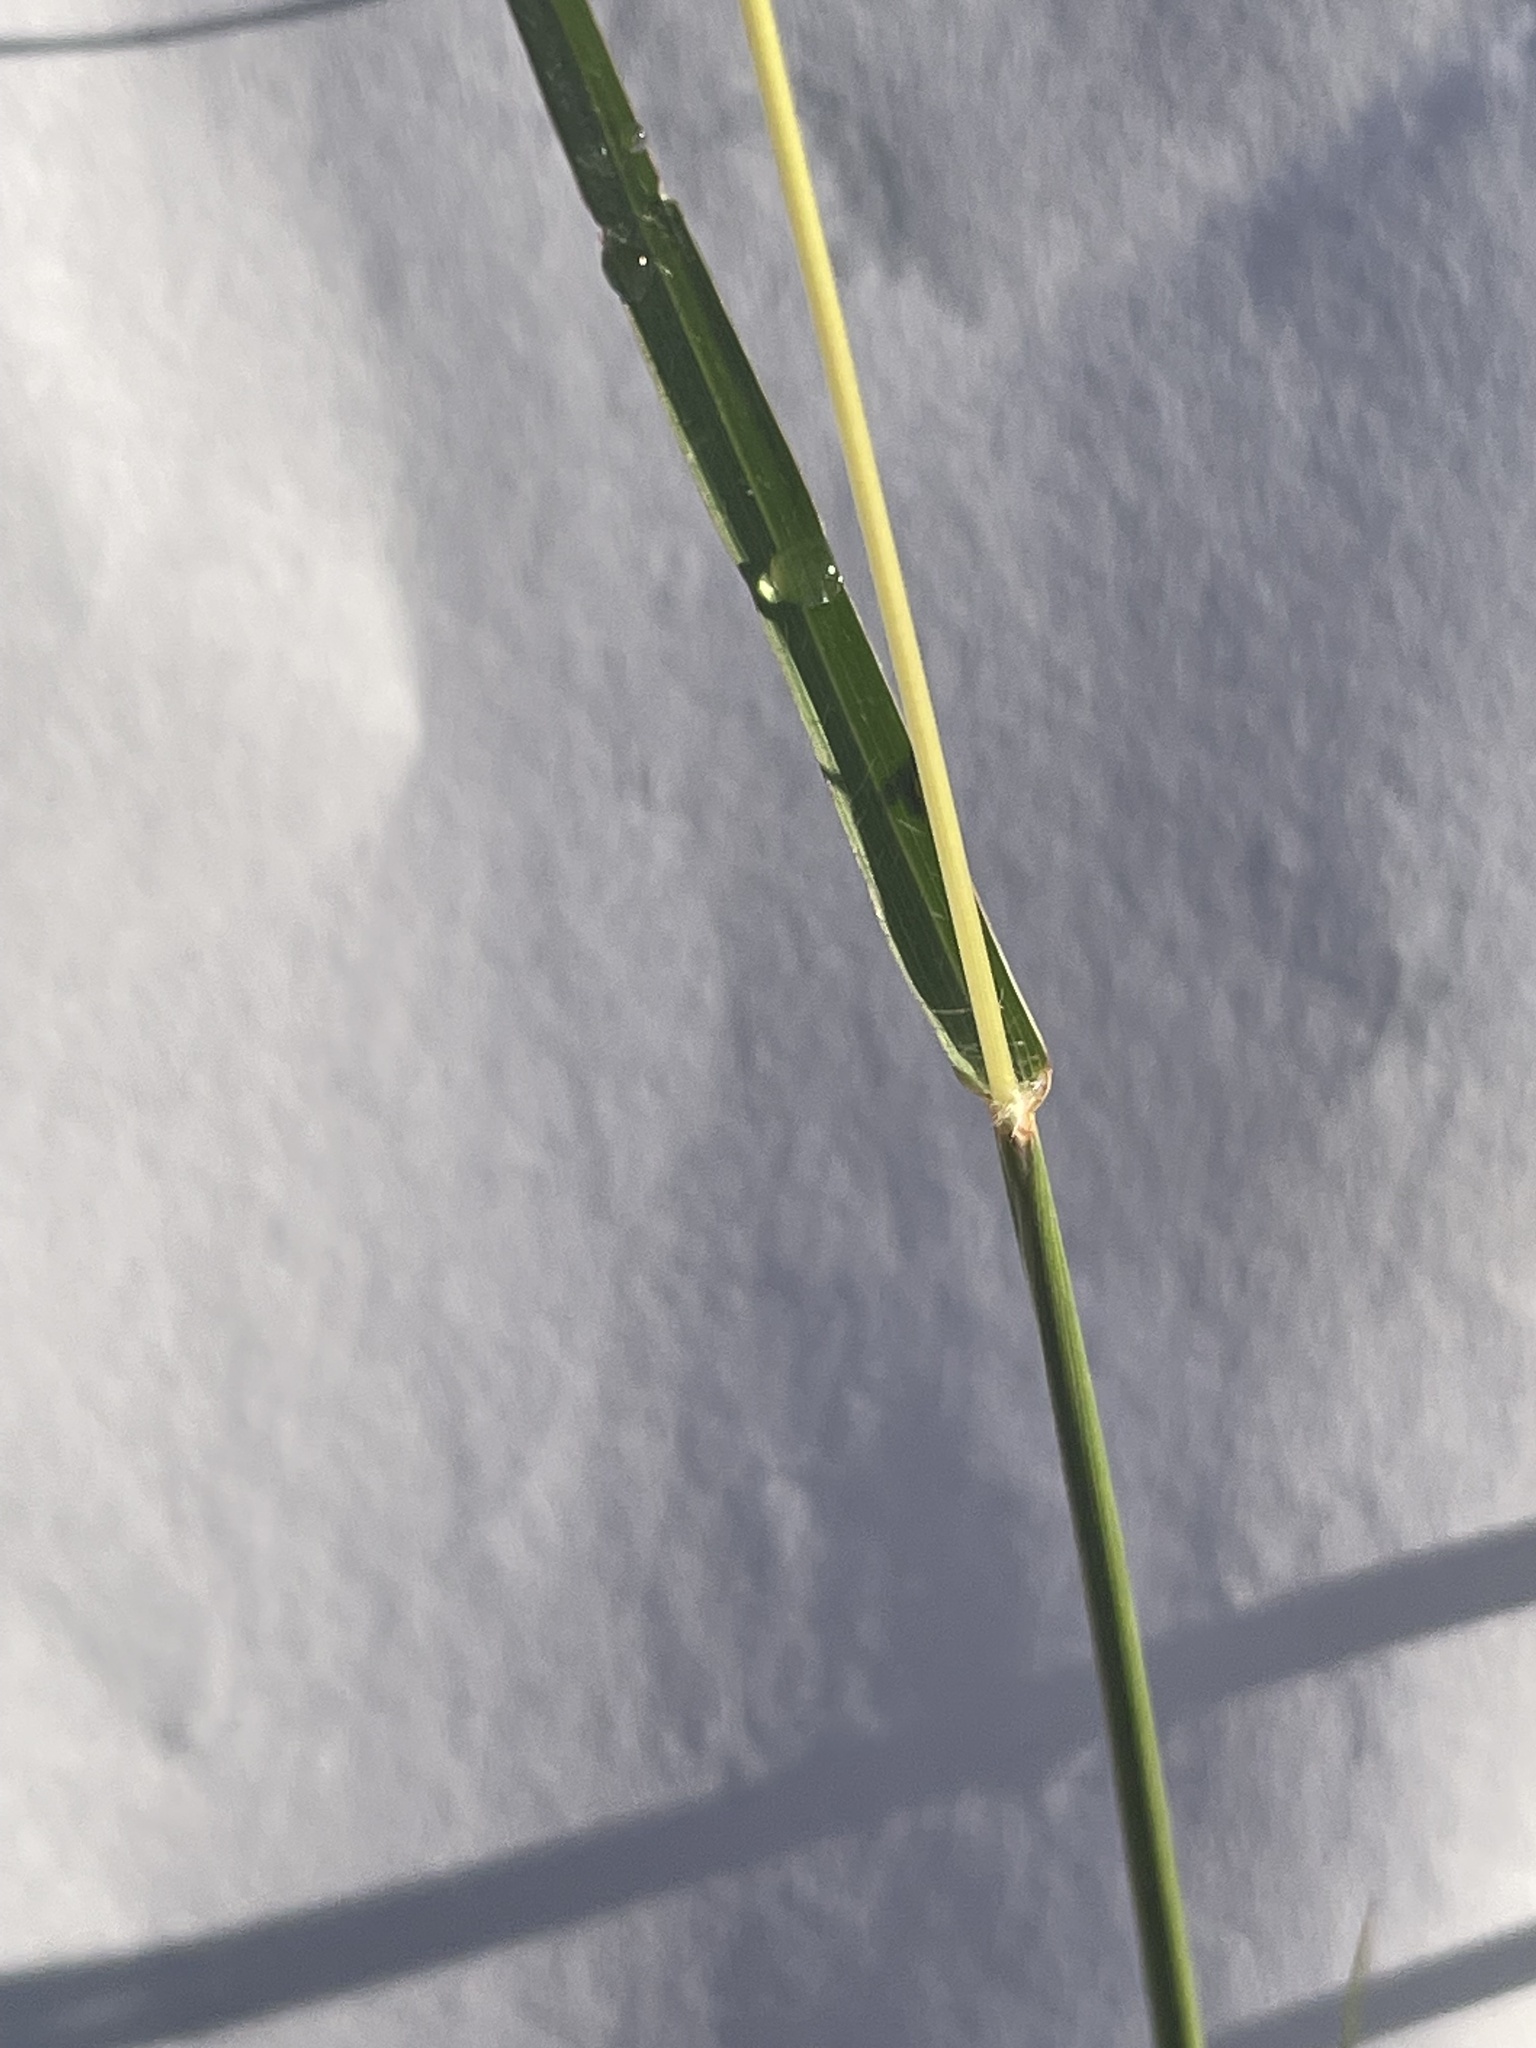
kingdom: Plantae
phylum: Tracheophyta
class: Liliopsida
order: Poales
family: Poaceae
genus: Bothriochloa
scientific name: Bothriochloa ischaemum
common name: Yellow bluestem
